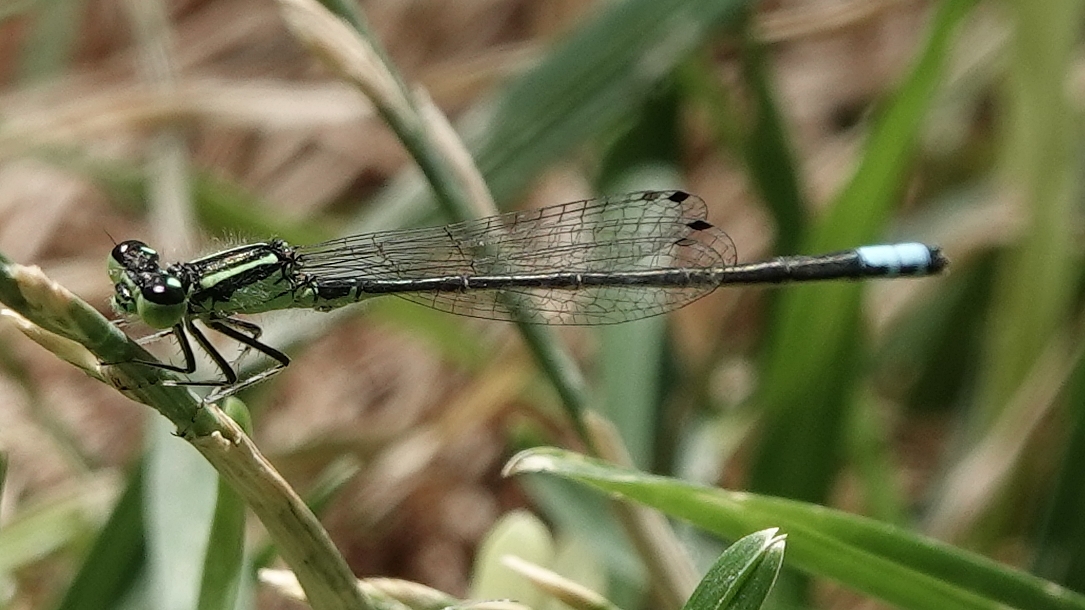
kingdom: Animalia
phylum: Arthropoda
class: Insecta
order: Odonata
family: Coenagrionidae
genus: Ischnura
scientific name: Ischnura verticalis
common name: Eastern forktail
